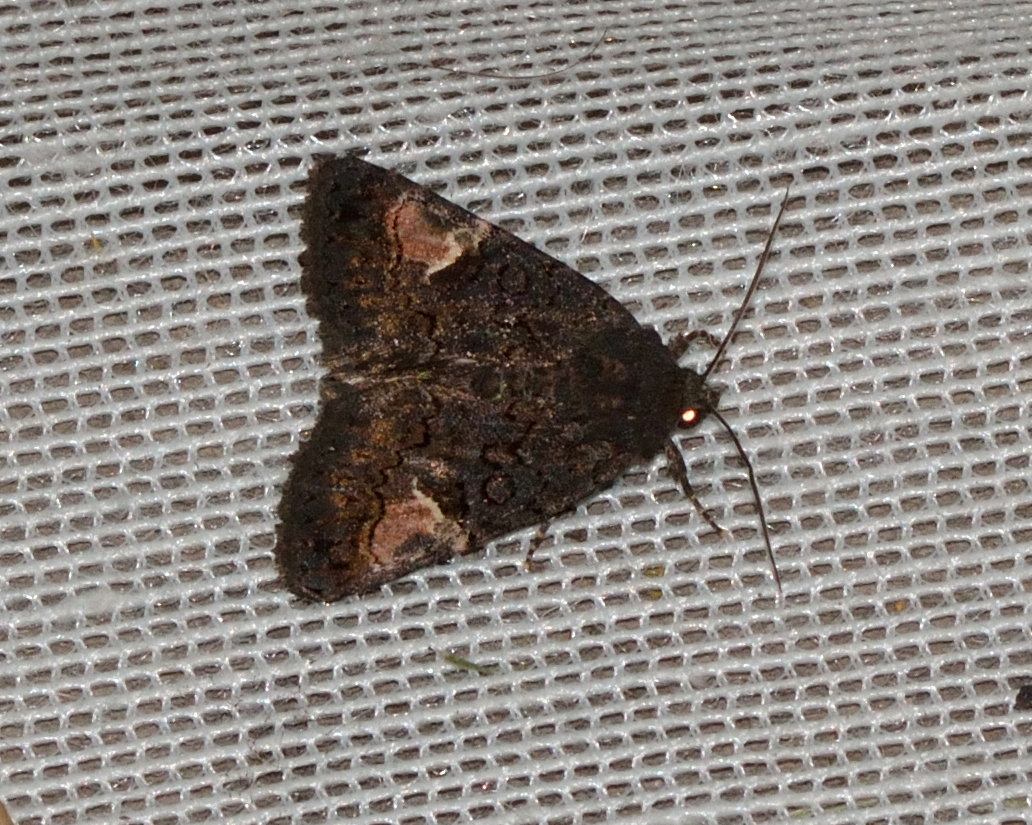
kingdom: Animalia
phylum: Arthropoda
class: Insecta
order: Lepidoptera
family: Noctuidae
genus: Aedia
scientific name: Aedia funesta
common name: The druid
